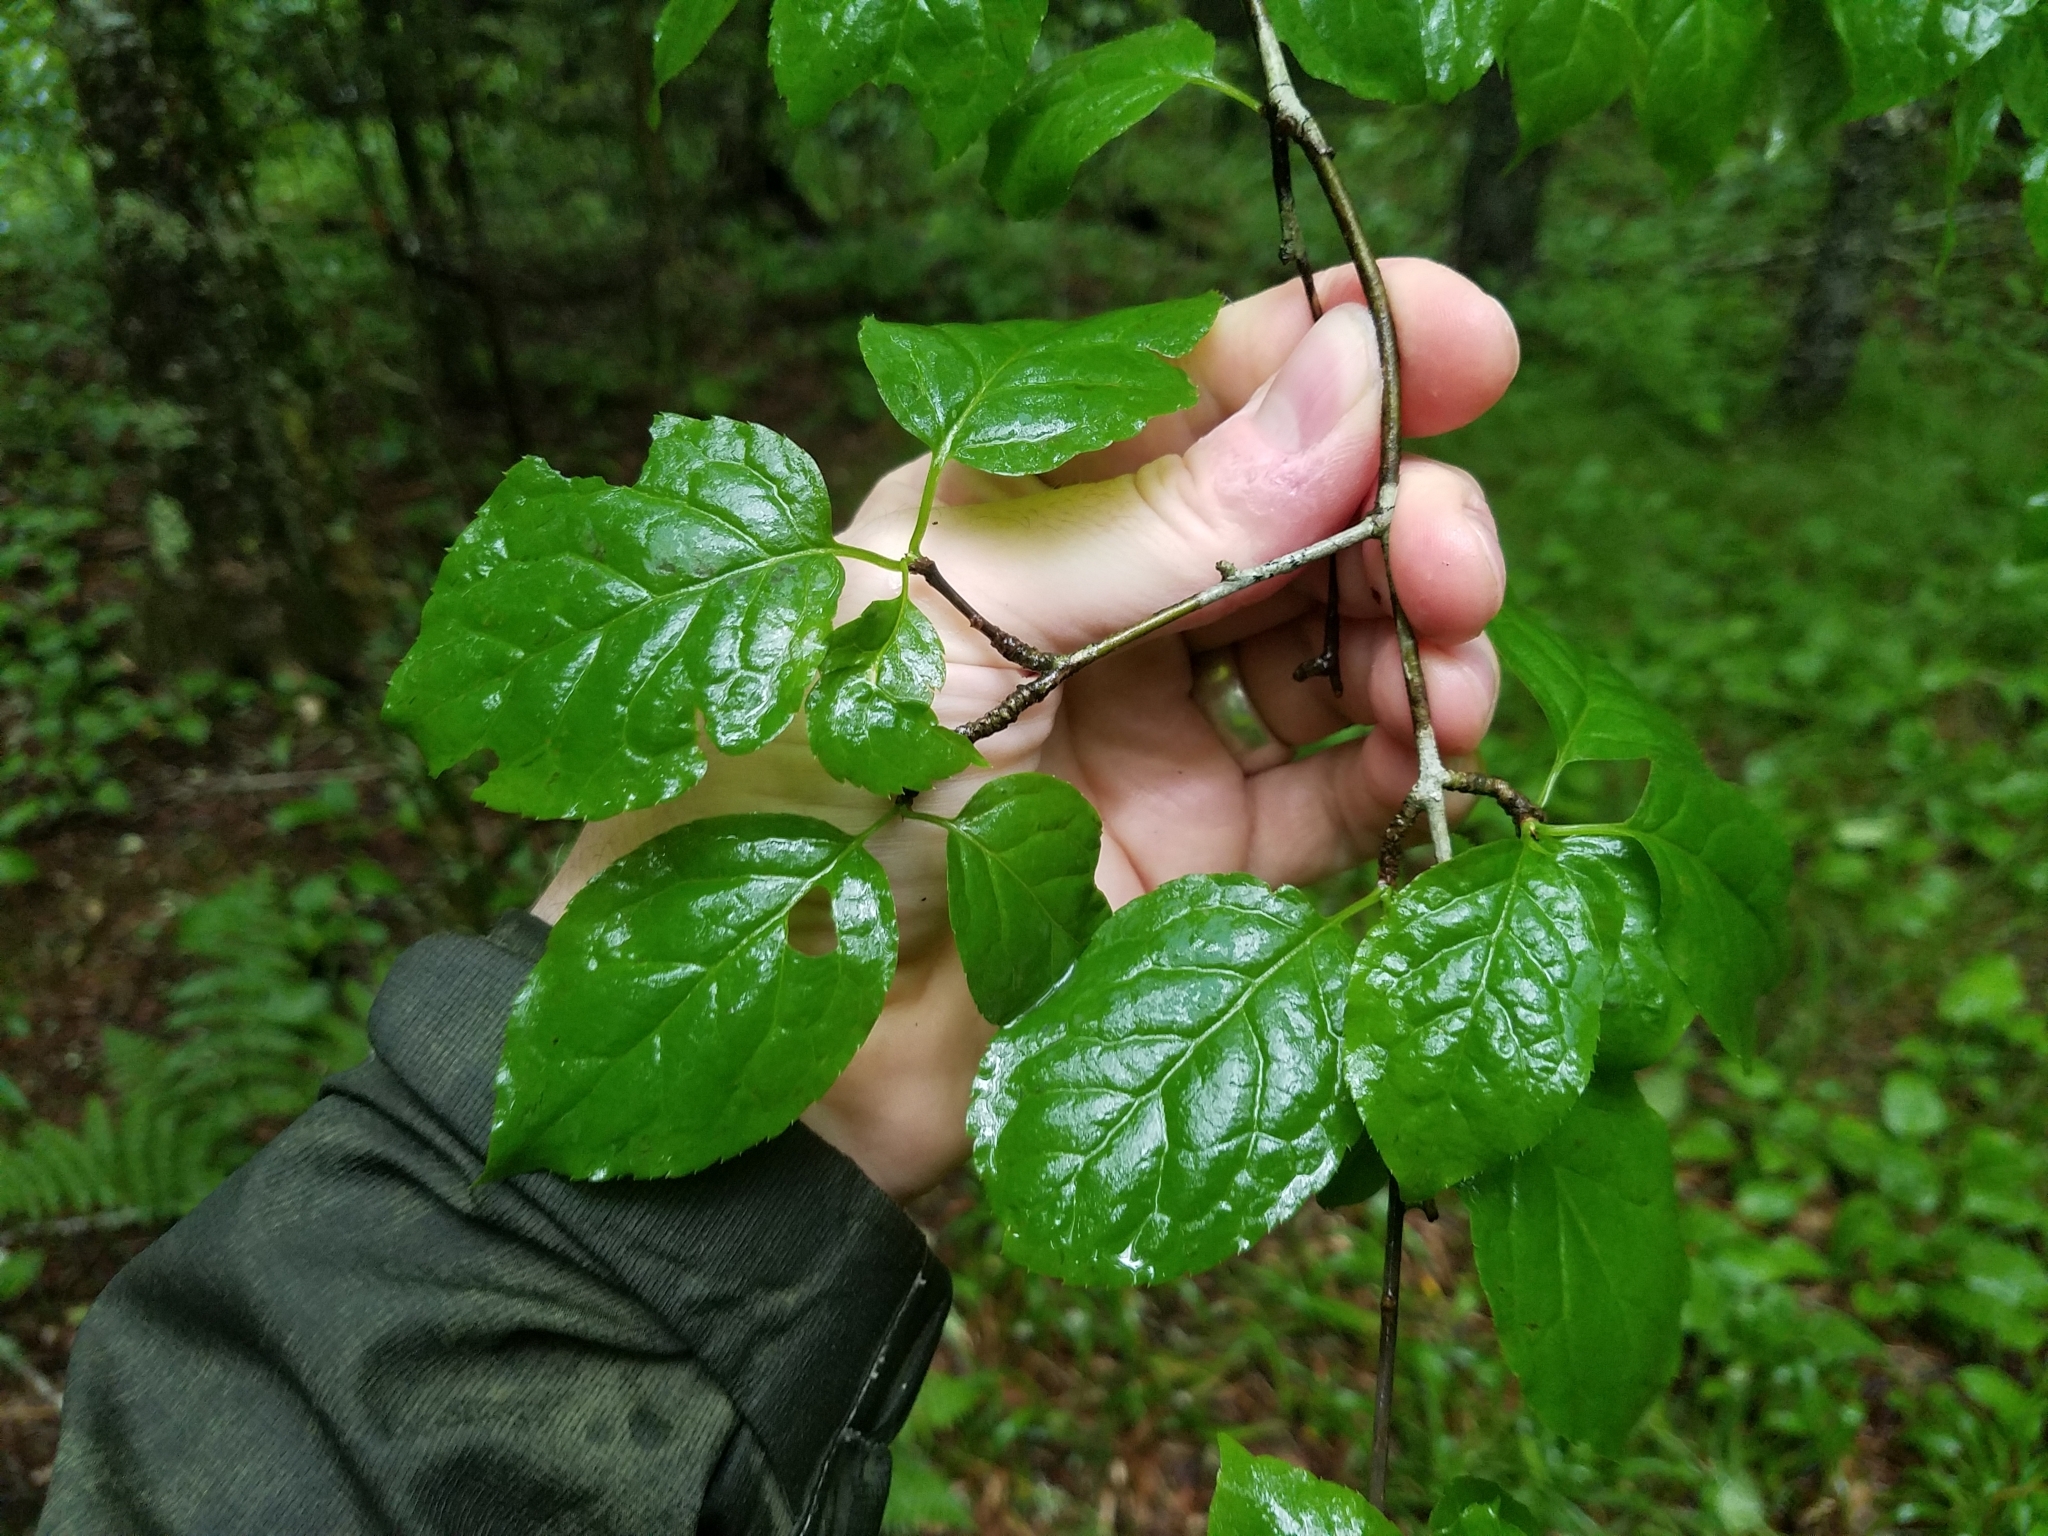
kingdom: Plantae
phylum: Tracheophyta
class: Magnoliopsida
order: Aquifoliales
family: Aquifoliaceae
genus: Ilex
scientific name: Ilex montana
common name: Mountain winterberry
